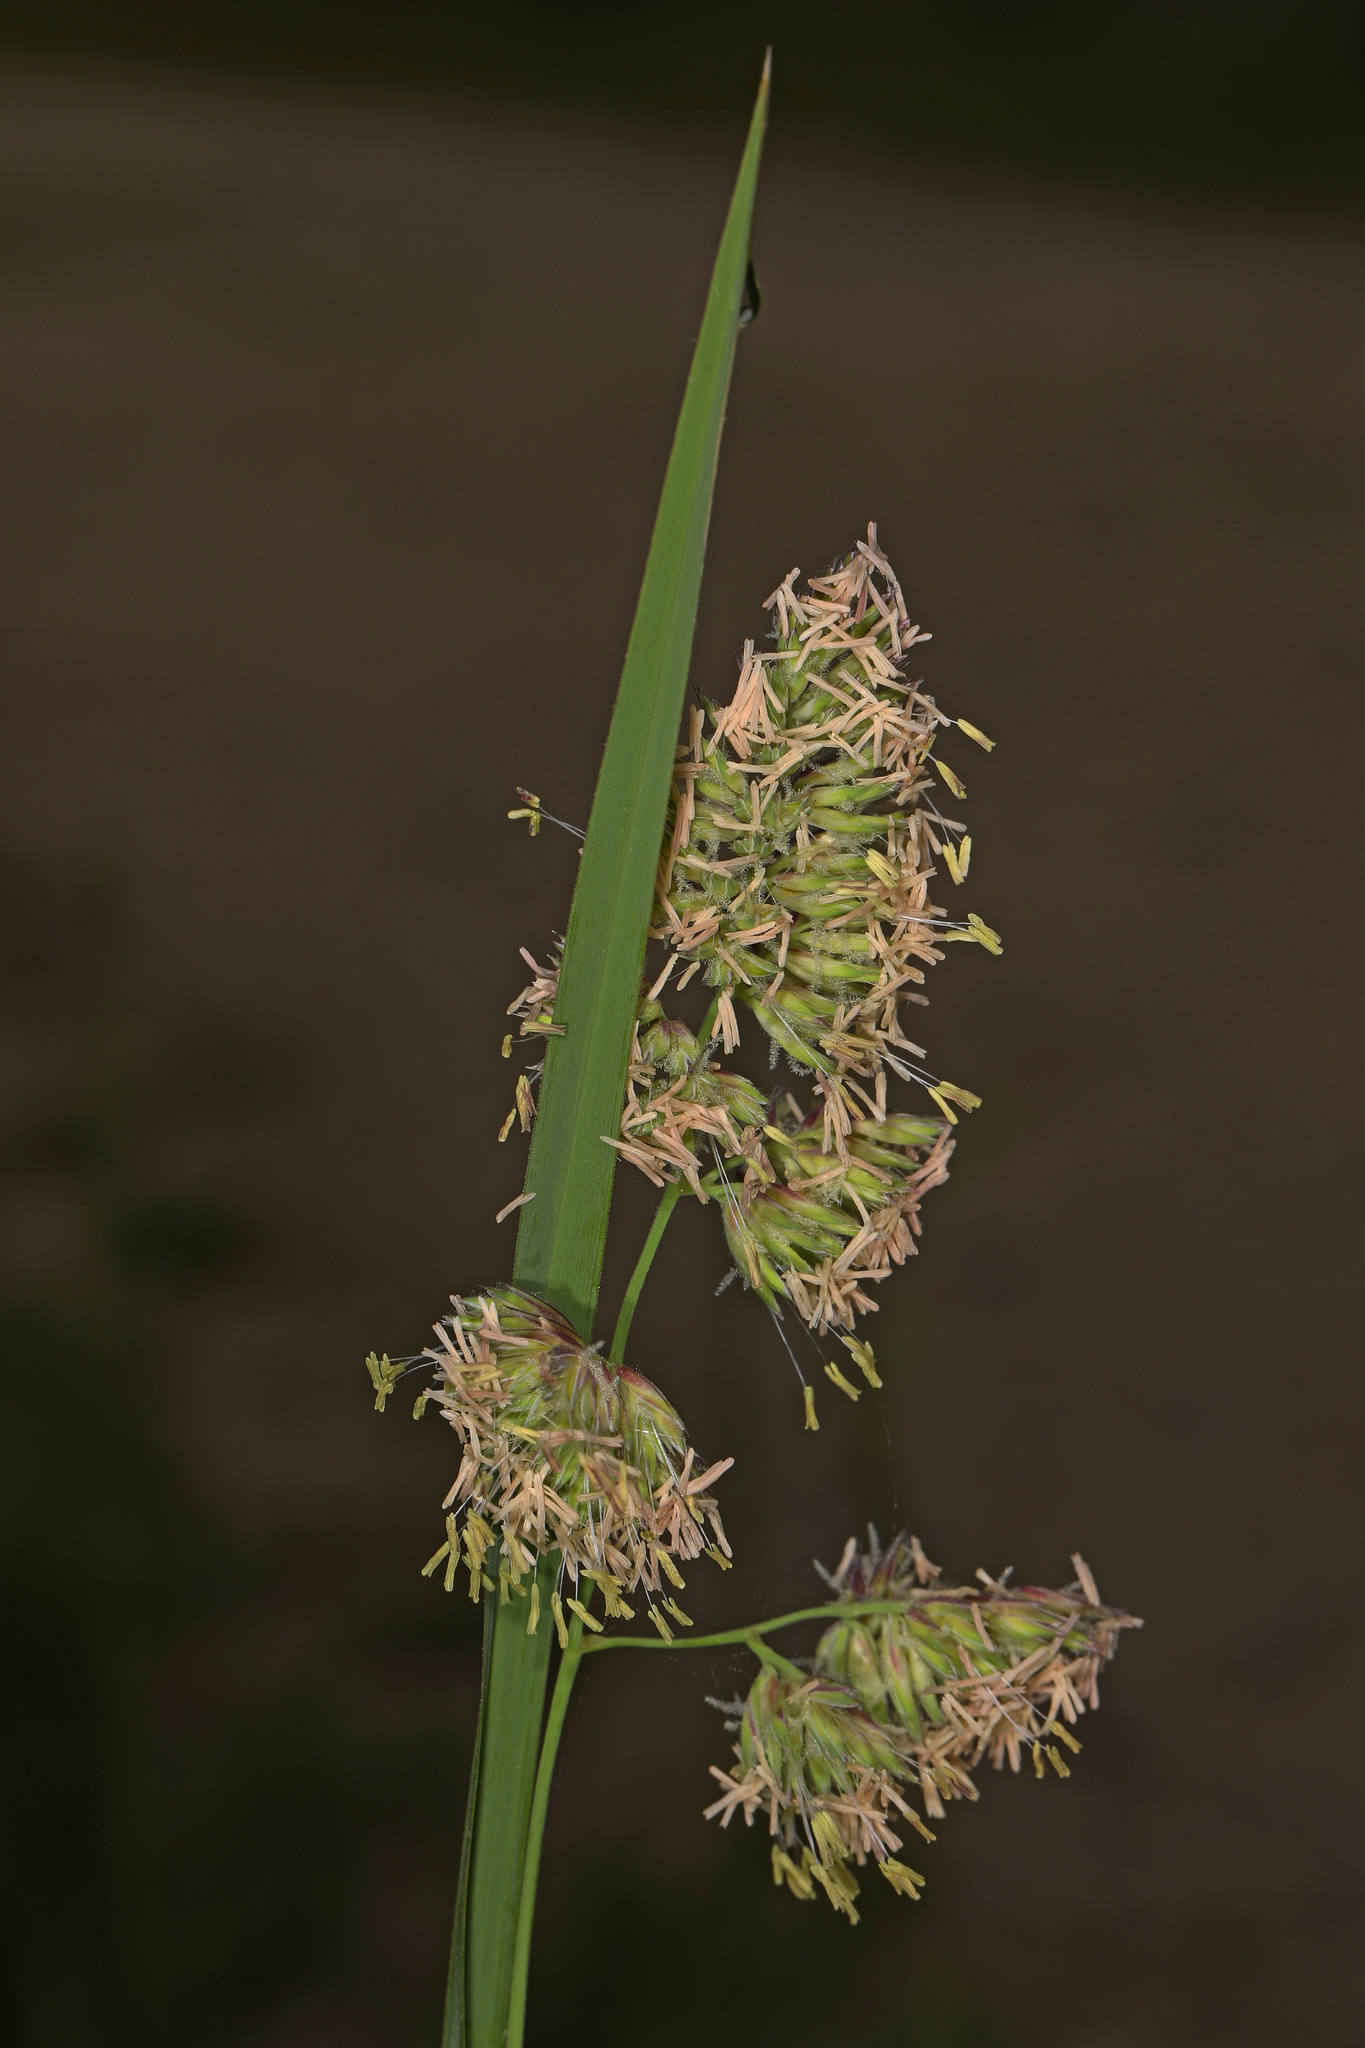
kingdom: Plantae
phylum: Tracheophyta
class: Liliopsida
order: Poales
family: Poaceae
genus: Dactylis
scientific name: Dactylis glomerata
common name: Orchardgrass
